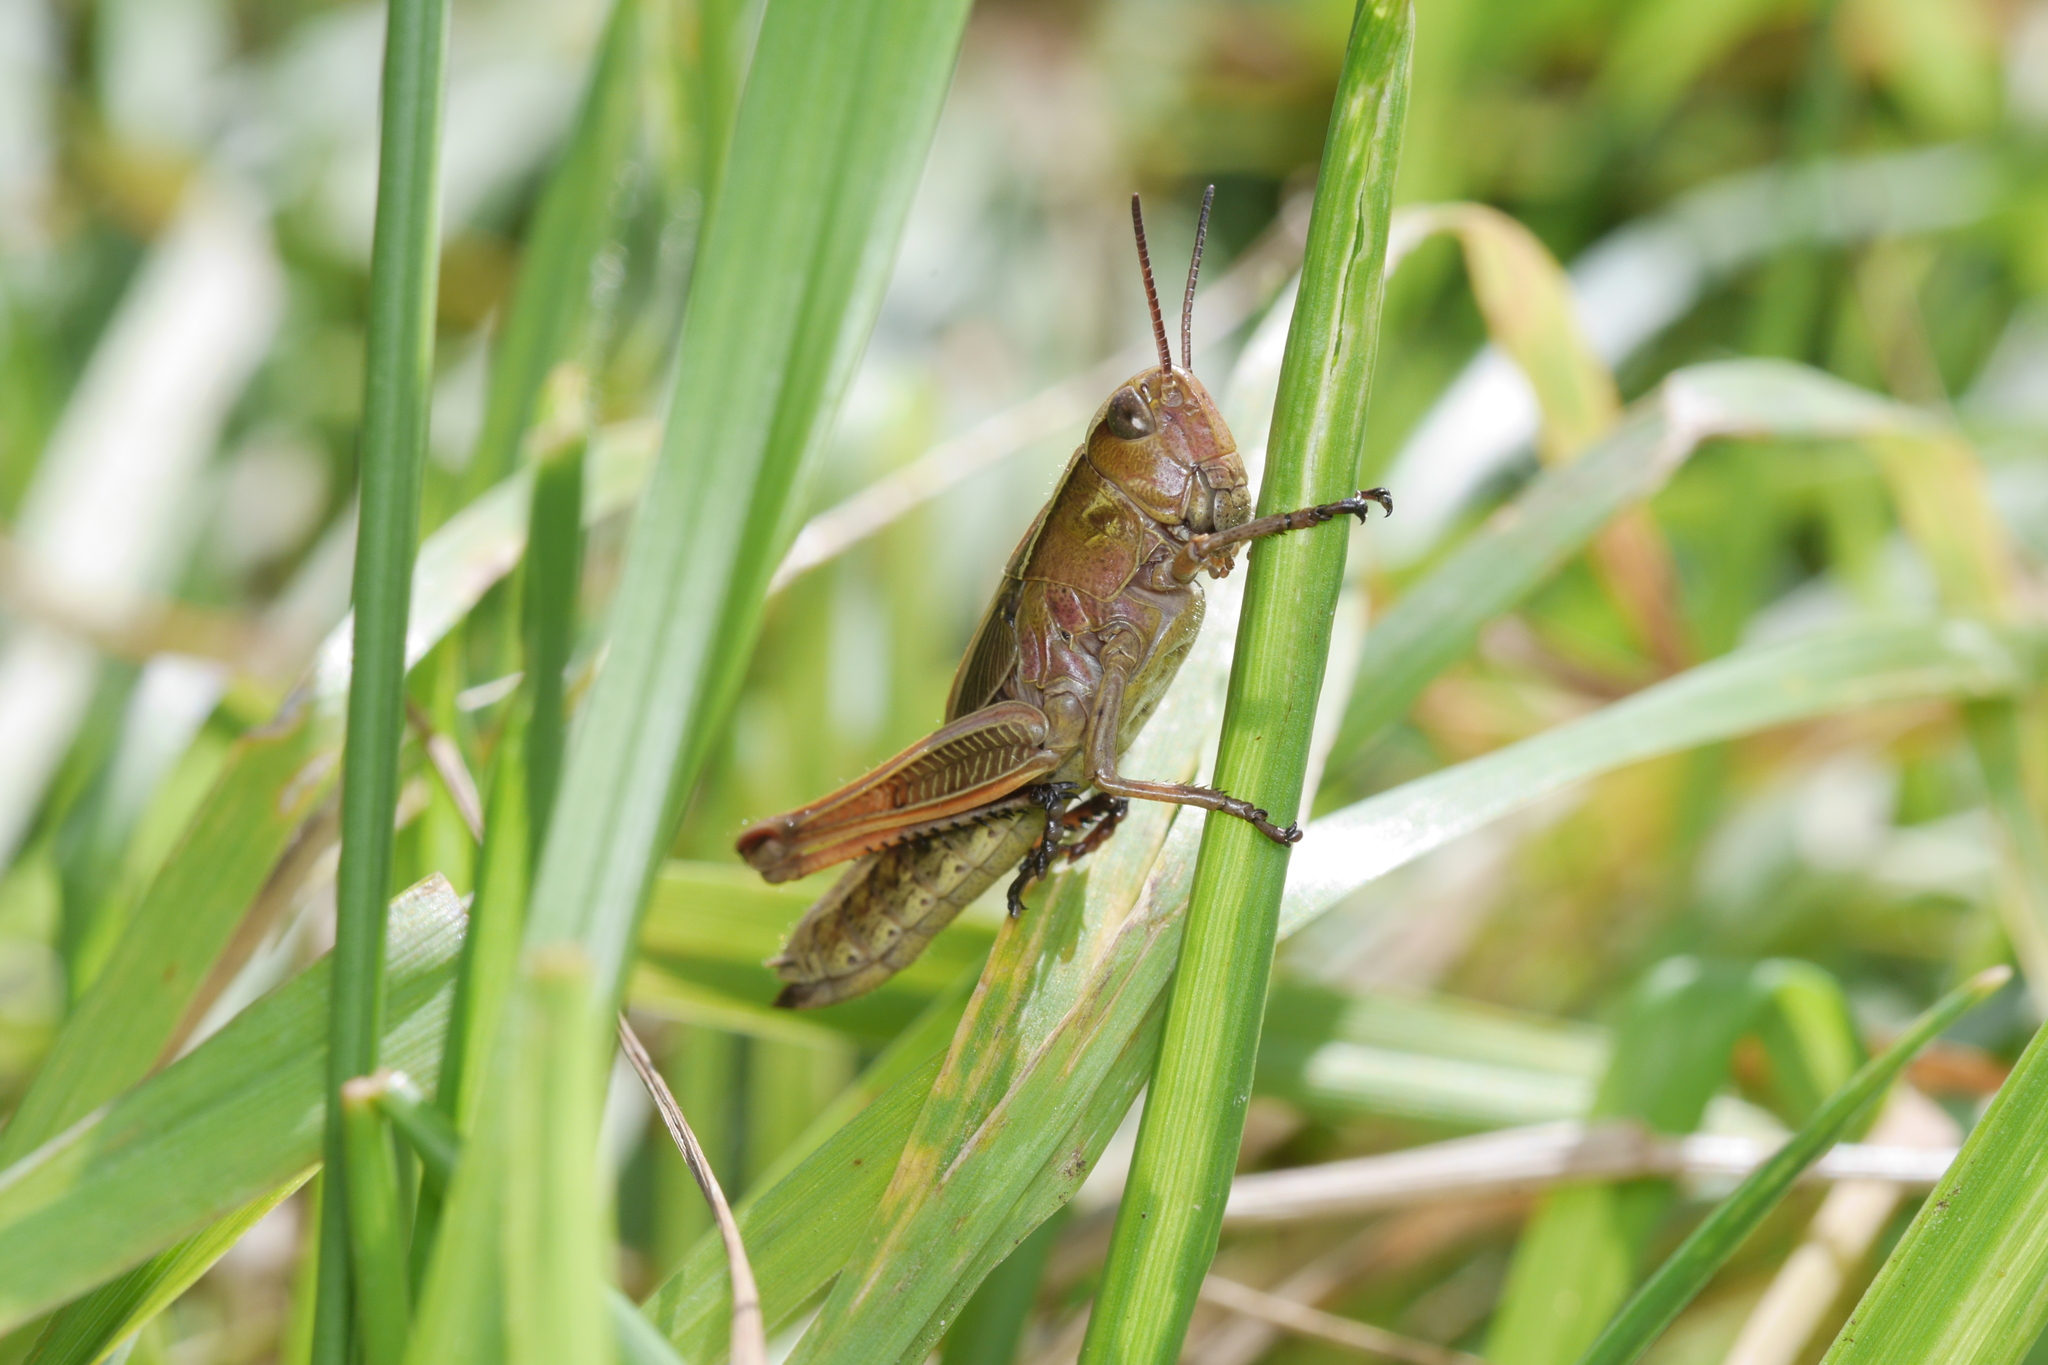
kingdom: Animalia
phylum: Arthropoda
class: Insecta
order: Orthoptera
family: Acrididae
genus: Stethophyma
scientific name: Stethophyma grossum
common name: Large marsh grasshopper
